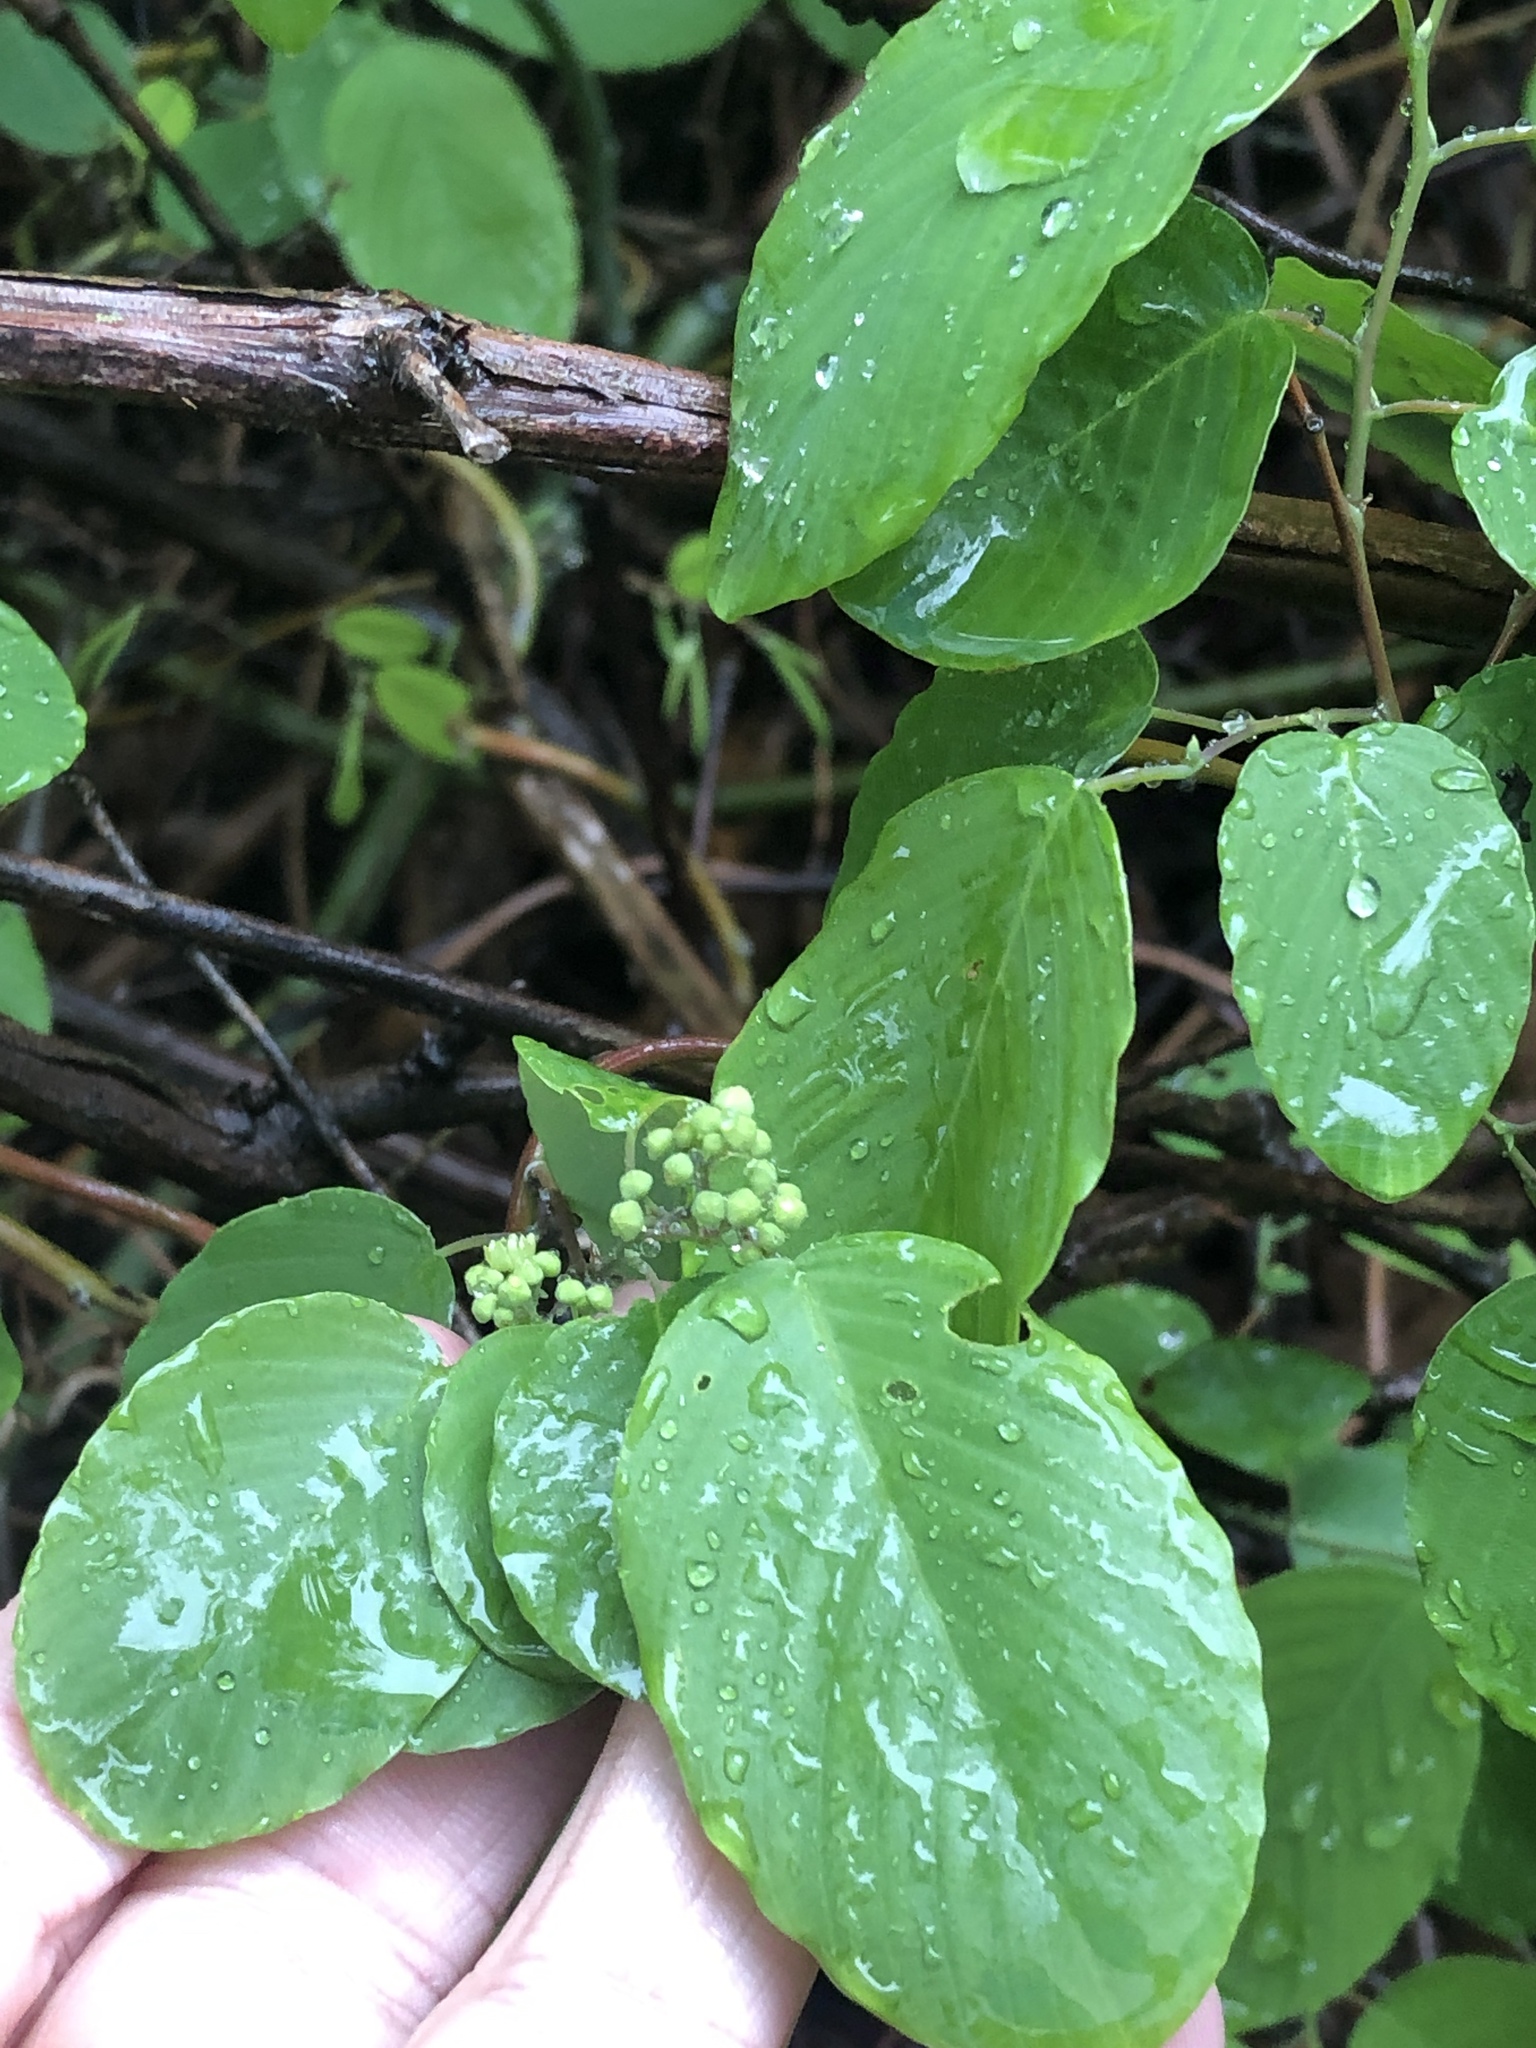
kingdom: Plantae
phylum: Tracheophyta
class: Magnoliopsida
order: Rosales
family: Rhamnaceae
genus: Berchemia
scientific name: Berchemia scandens
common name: Supplejack
